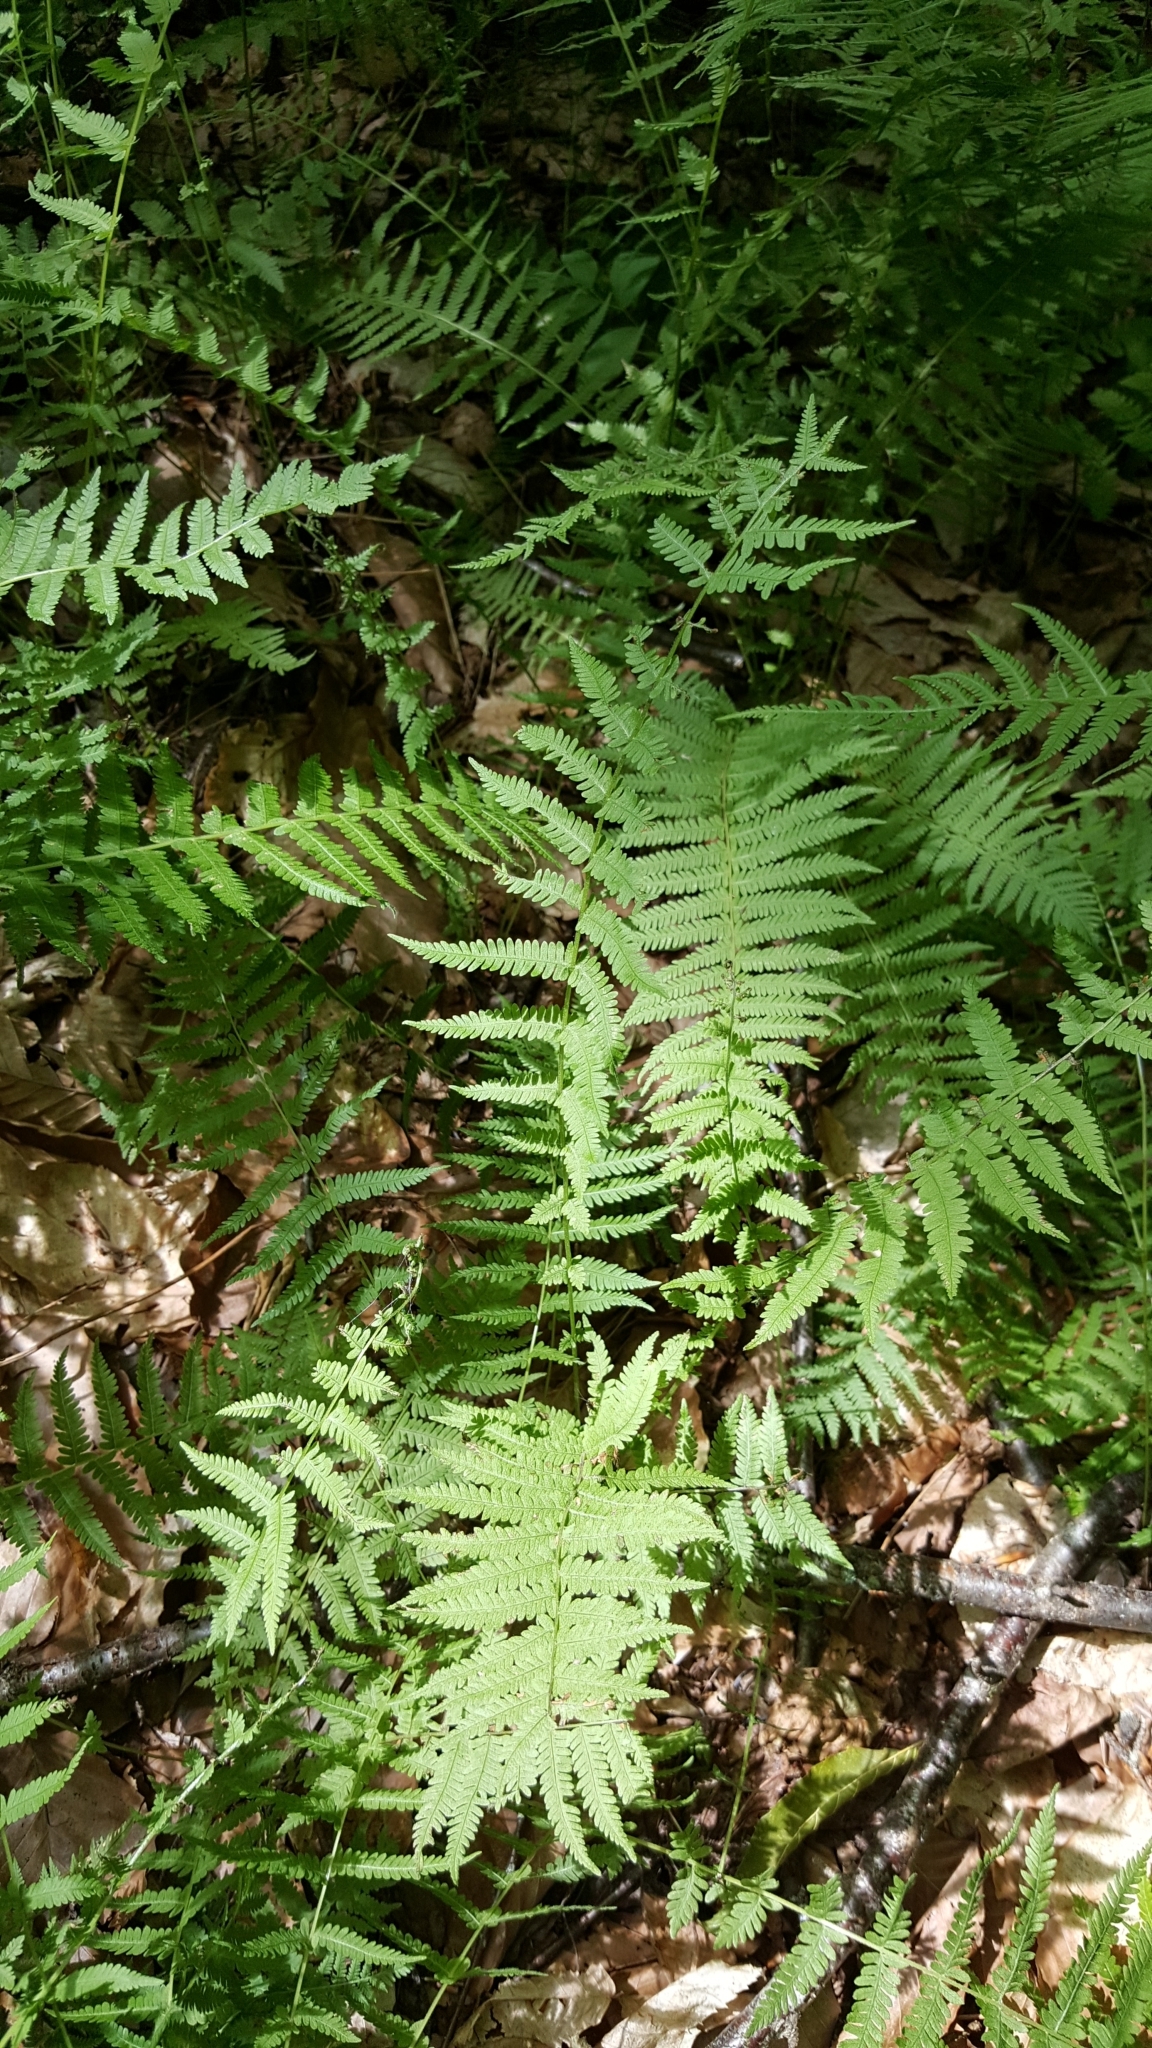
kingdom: Plantae
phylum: Tracheophyta
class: Polypodiopsida
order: Polypodiales
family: Thelypteridaceae
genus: Amauropelta
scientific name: Amauropelta noveboracensis
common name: New york fern
